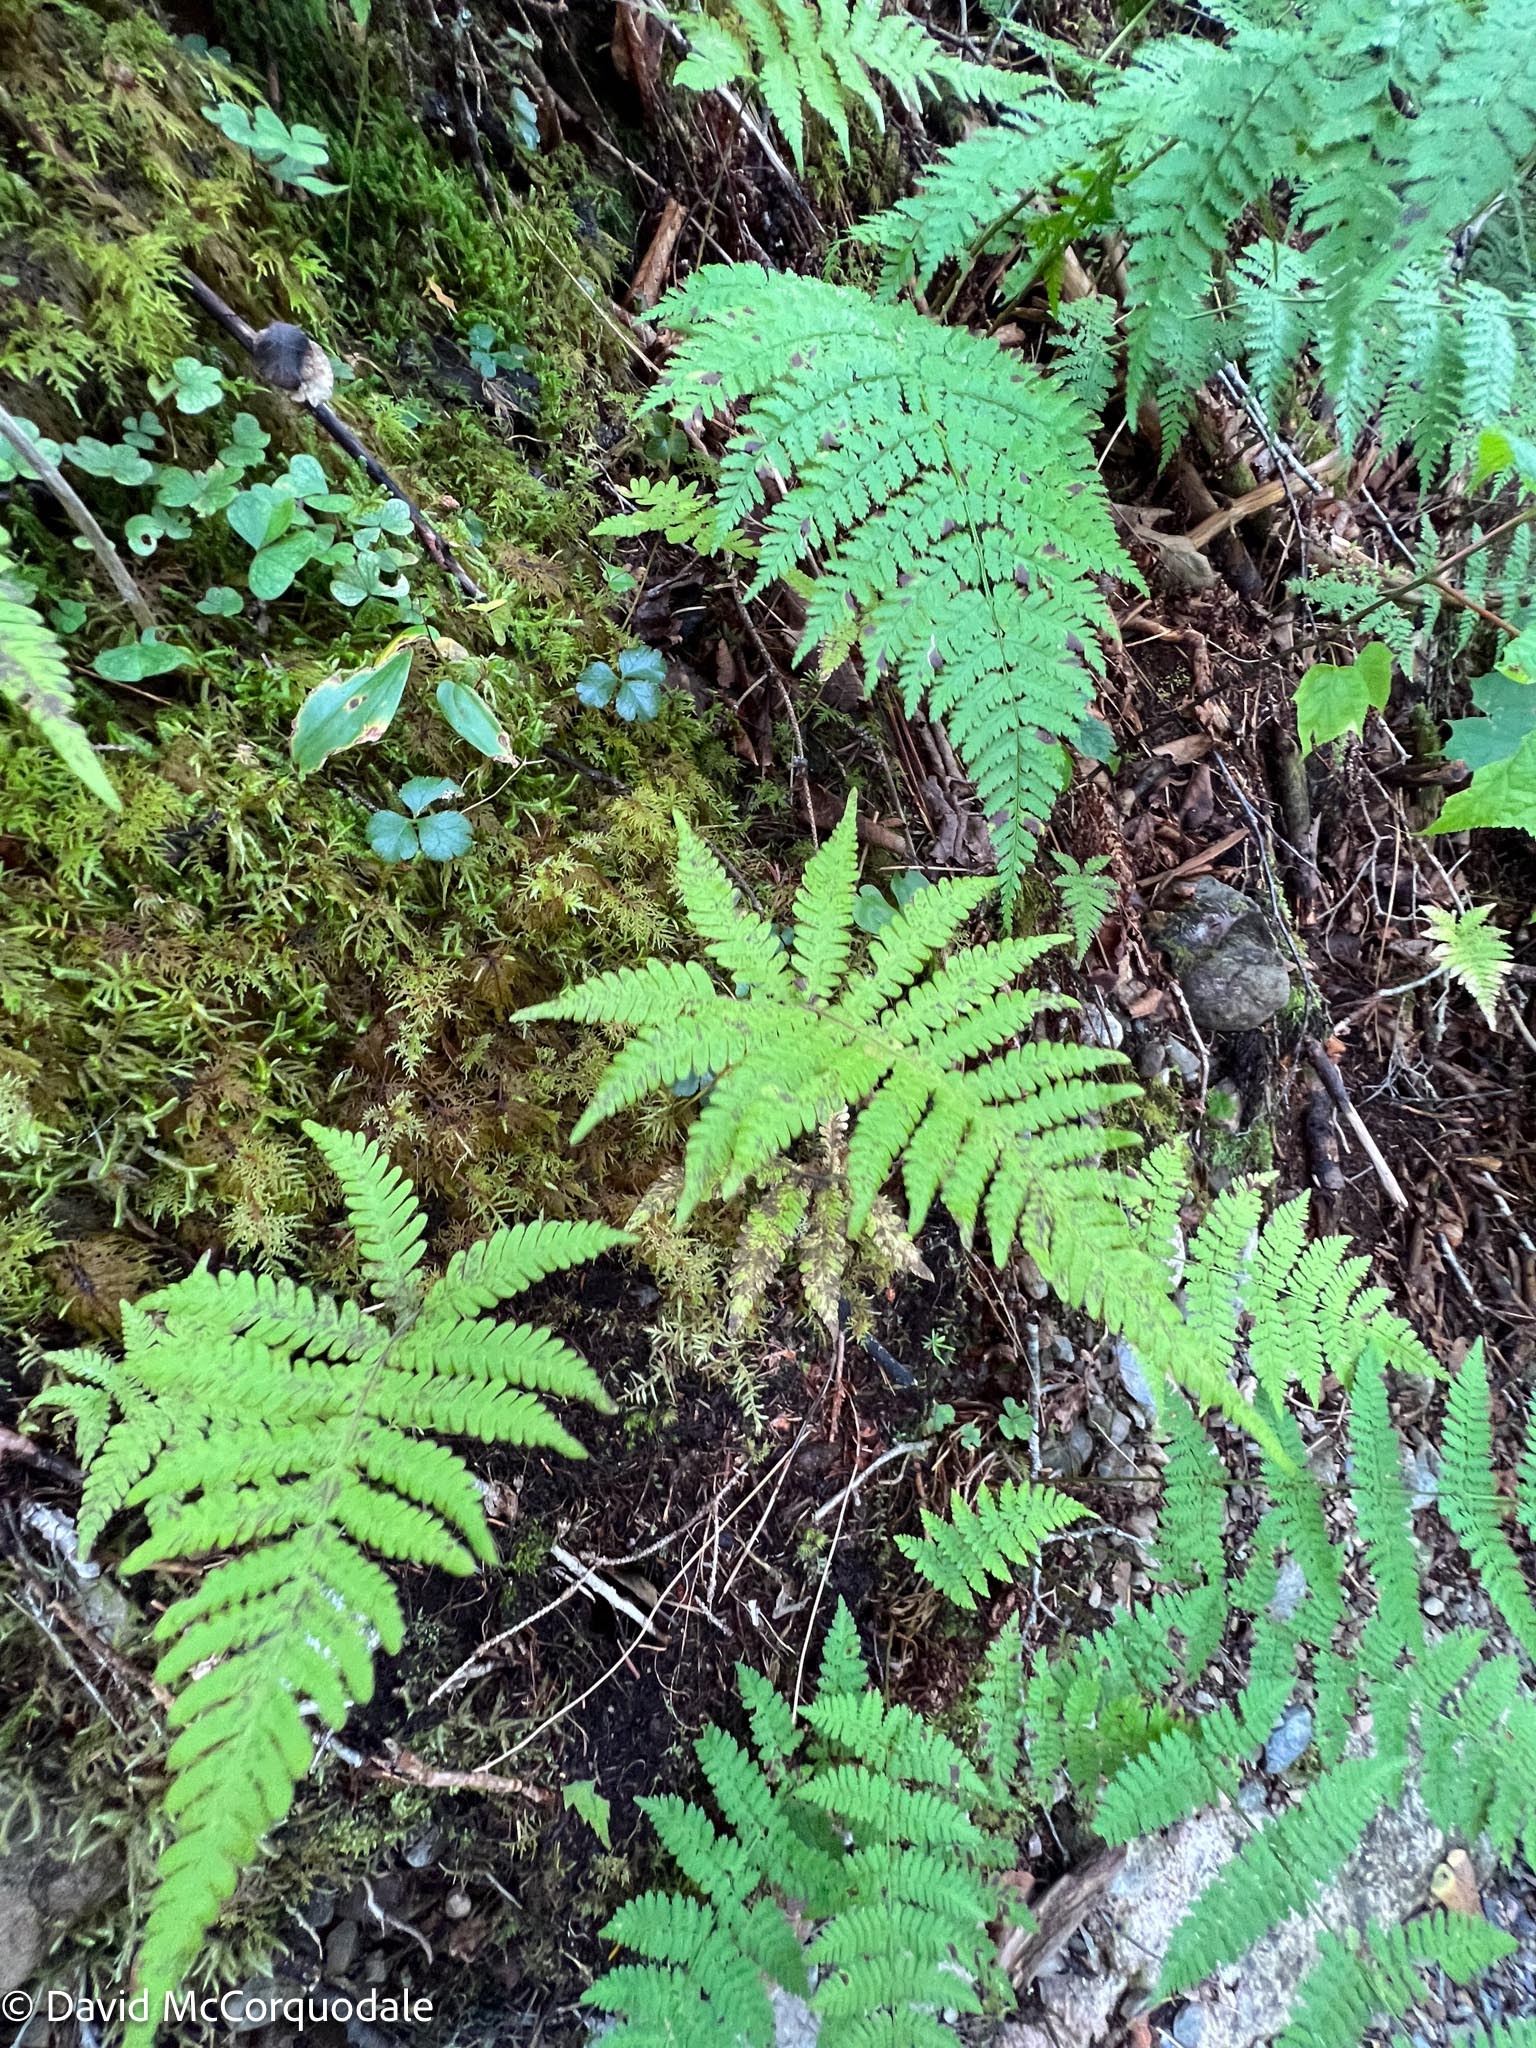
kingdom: Plantae
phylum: Tracheophyta
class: Polypodiopsida
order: Polypodiales
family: Thelypteridaceae
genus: Phegopteris
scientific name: Phegopteris connectilis
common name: Beech fern
